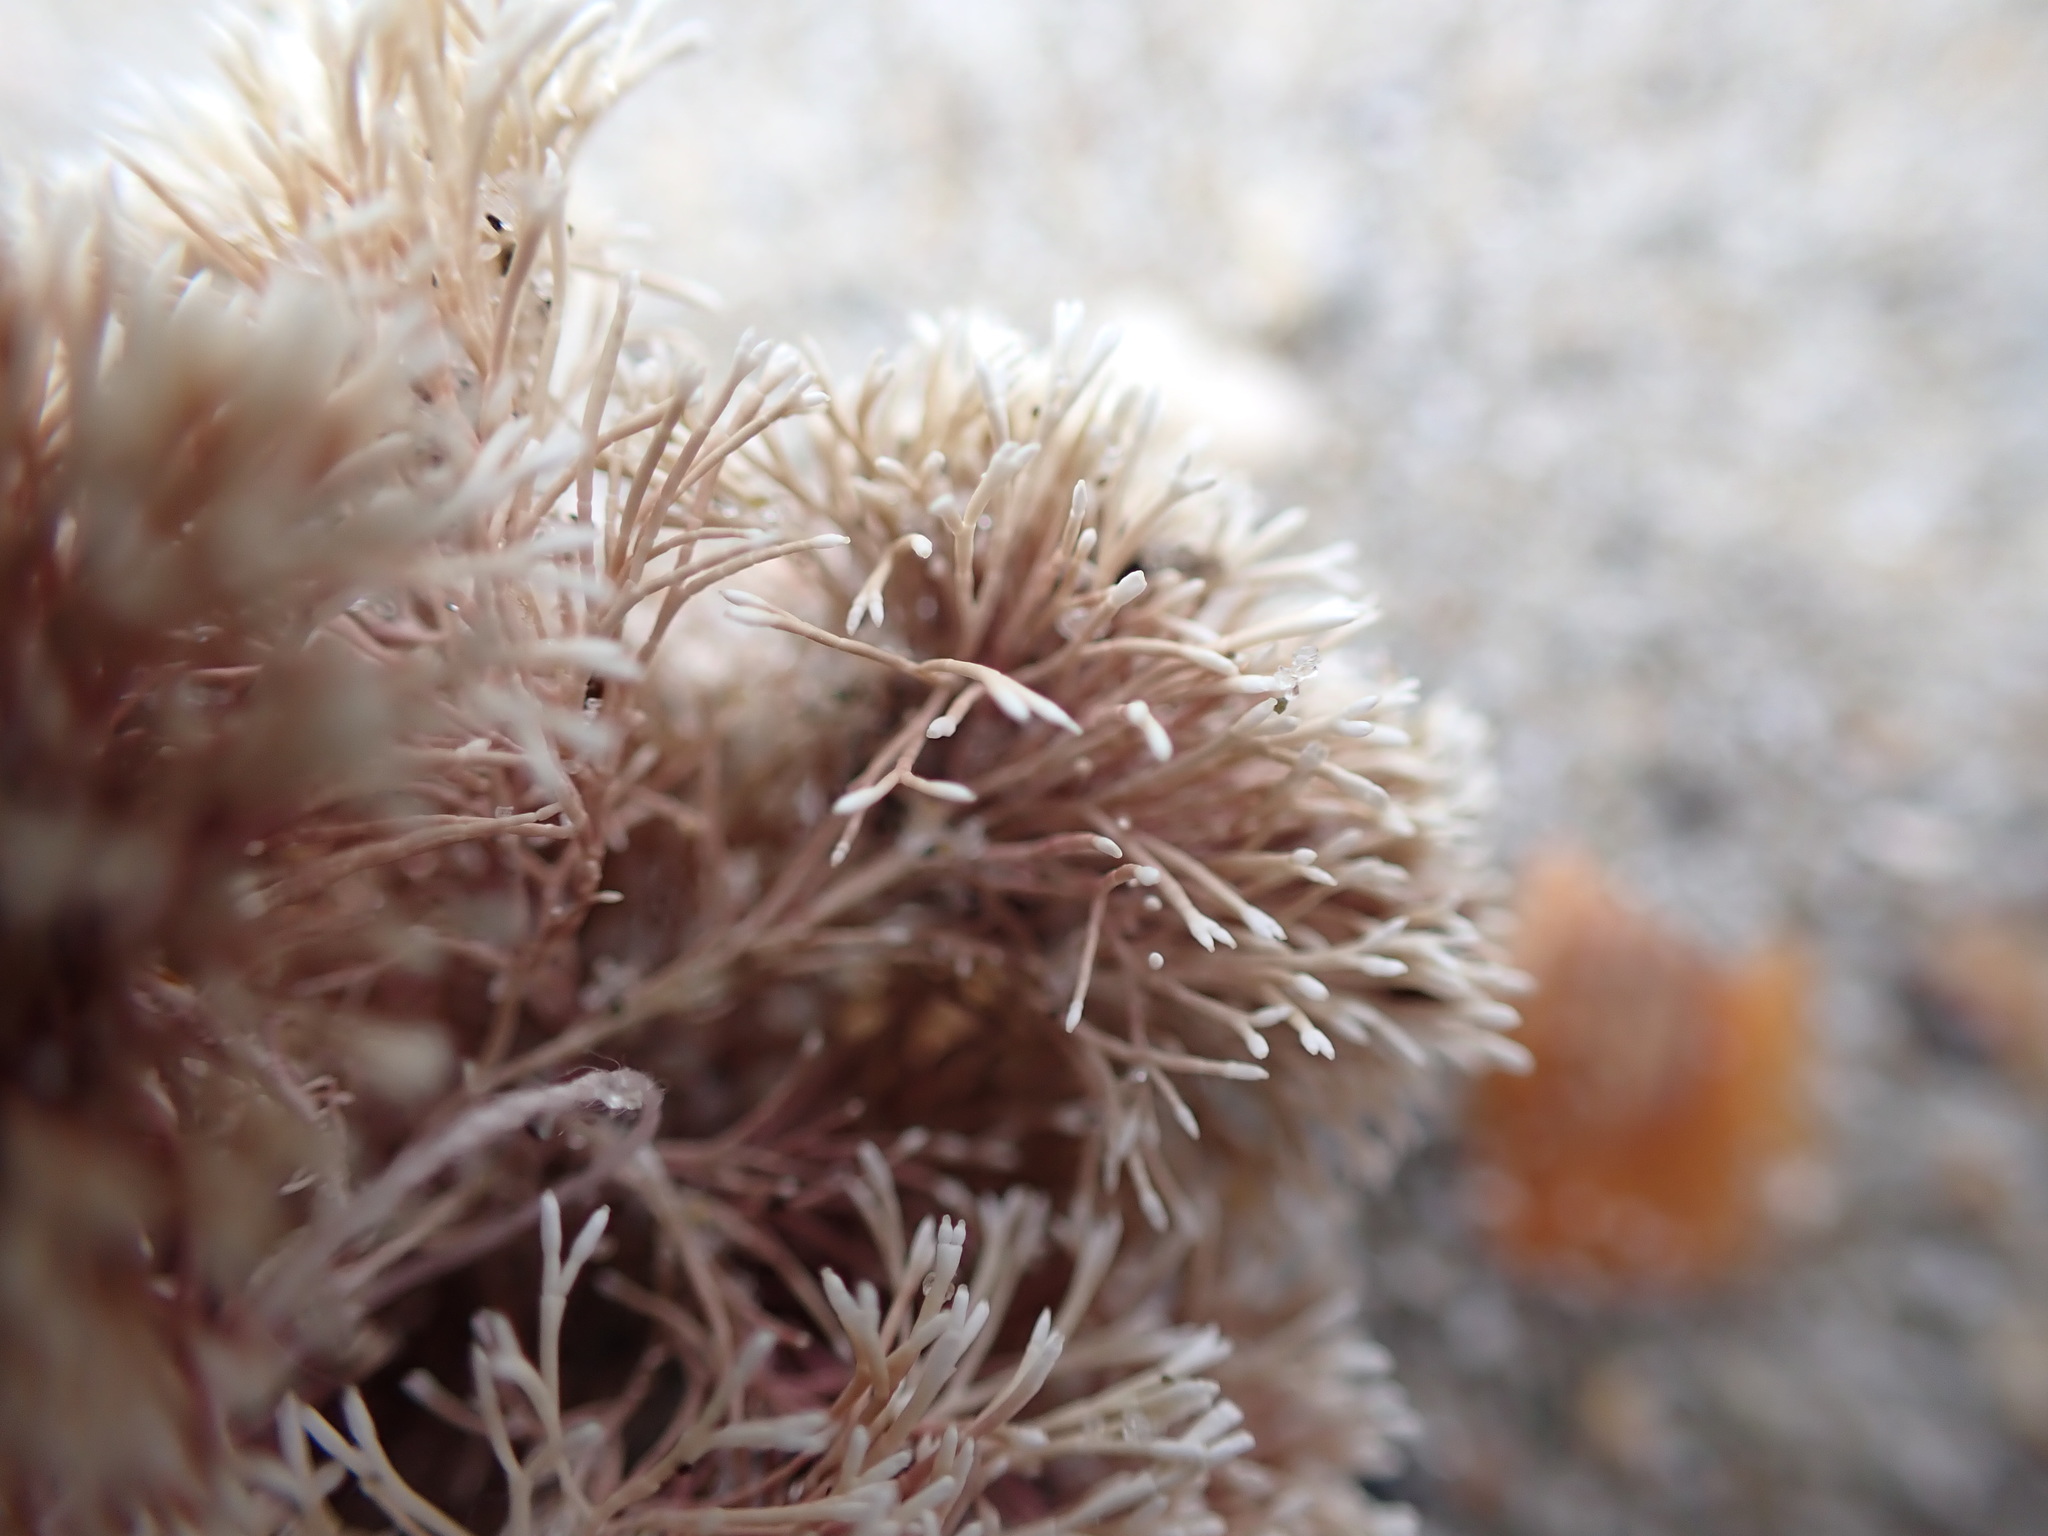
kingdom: Plantae
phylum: Rhodophyta
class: Florideophyceae
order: Corallinales
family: Corallinaceae
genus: Jania
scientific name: Jania sphaeroramosa
